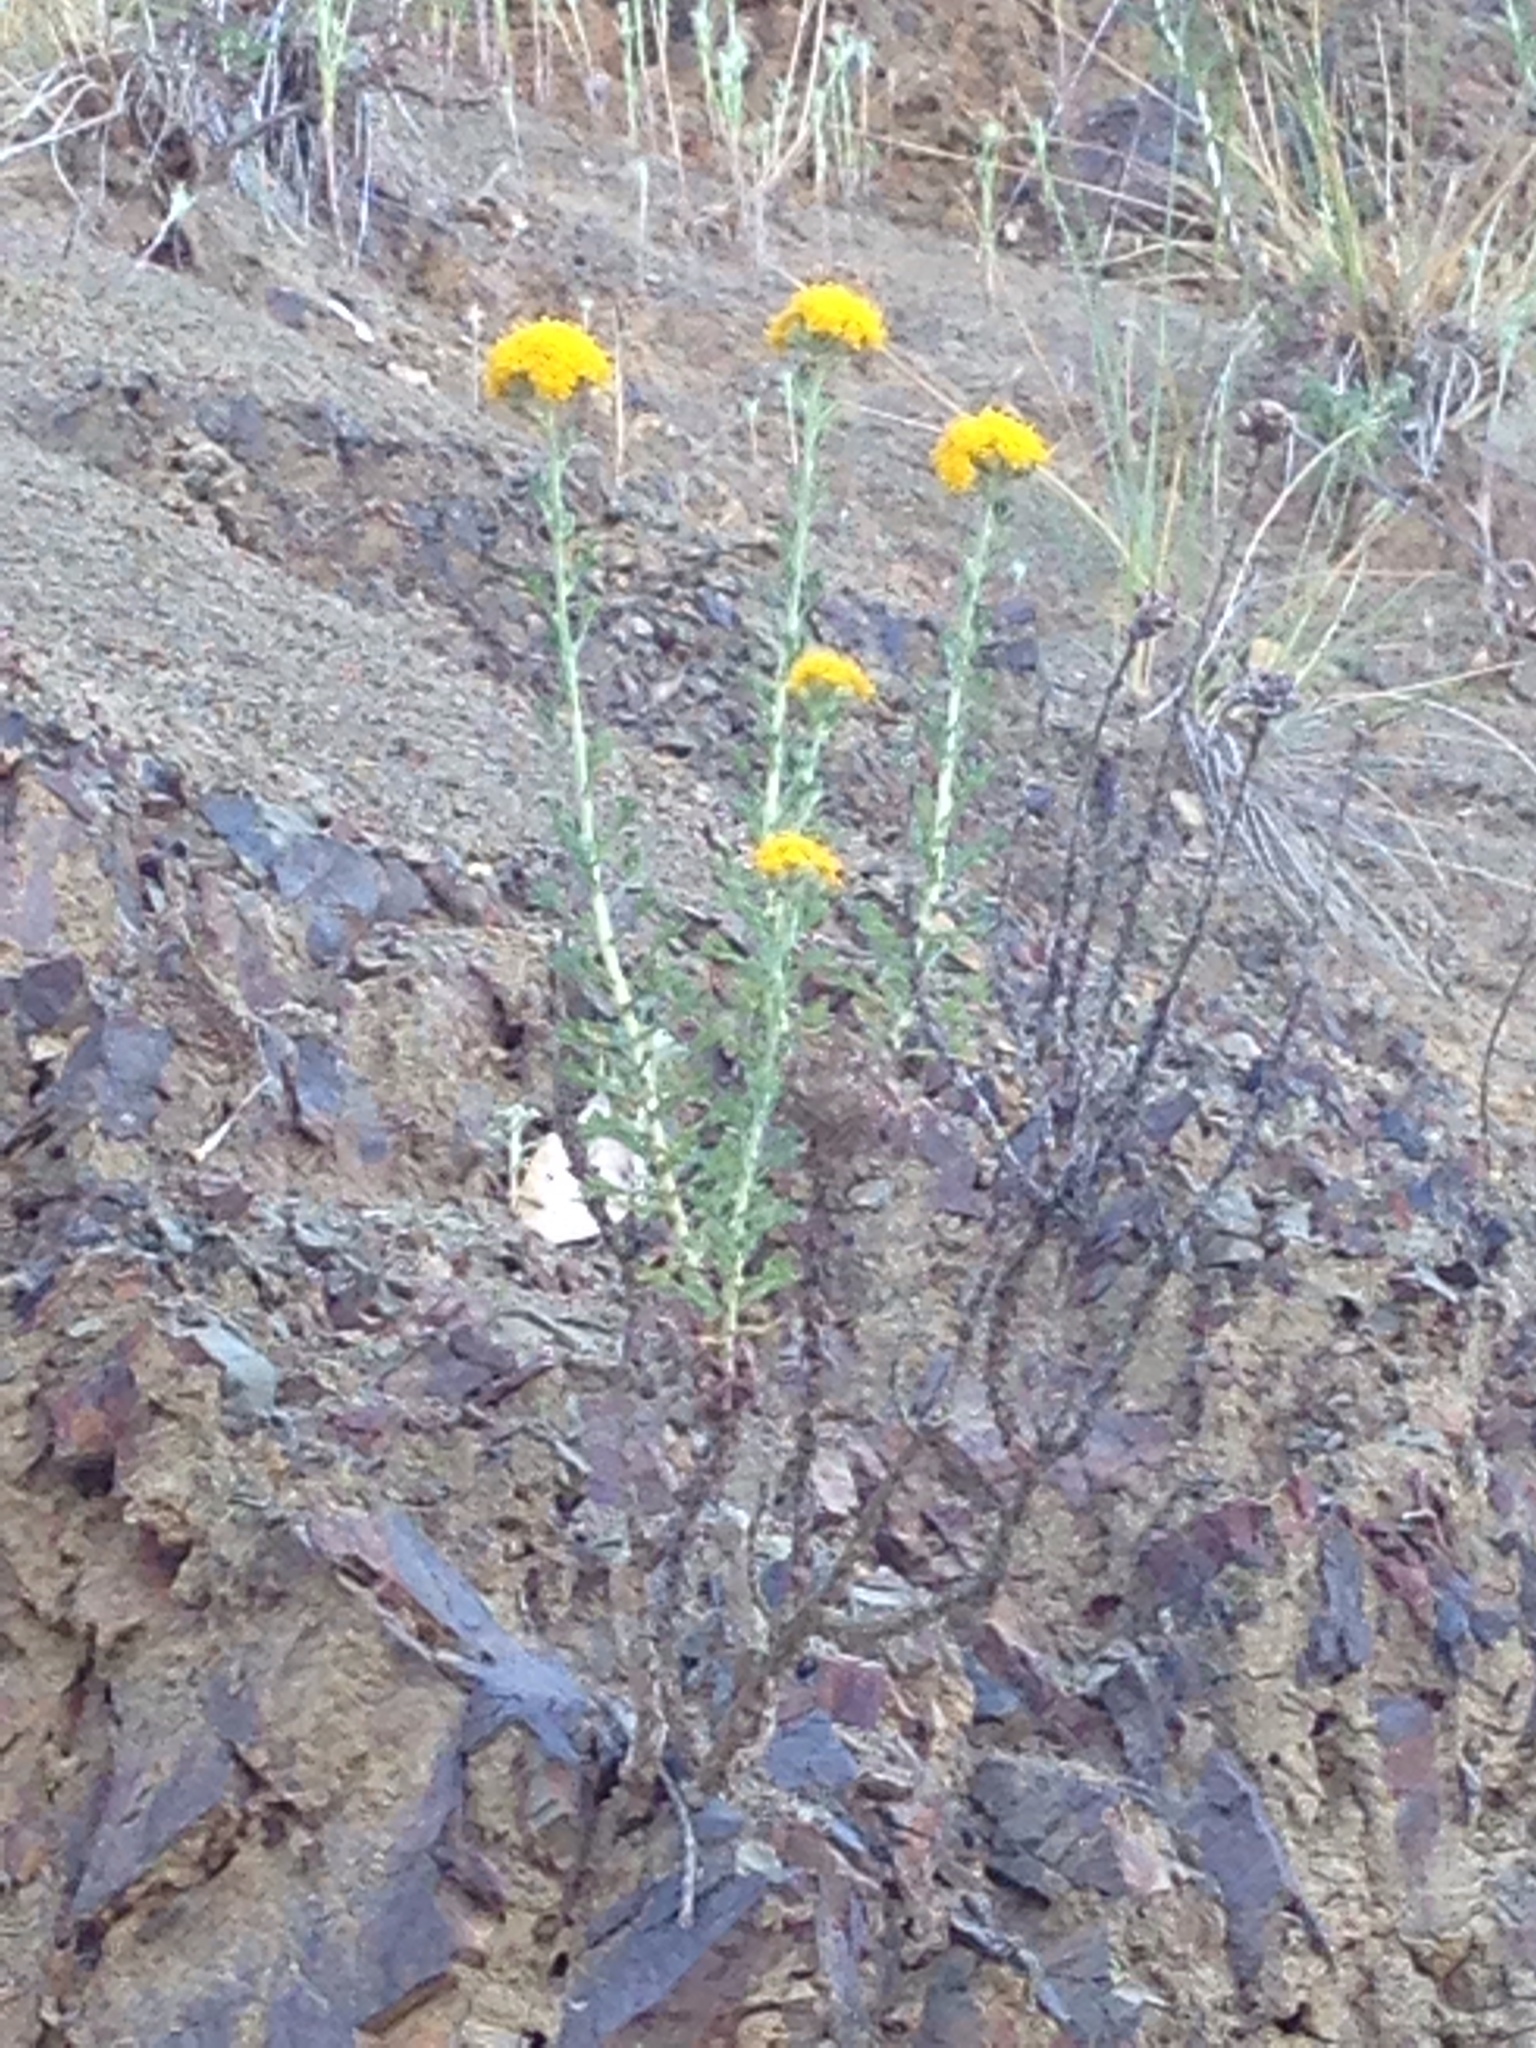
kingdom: Plantae
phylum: Tracheophyta
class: Magnoliopsida
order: Asterales
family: Asteraceae
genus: Eriophyllum
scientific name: Eriophyllum confertiflorum
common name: Golden-yarrow
